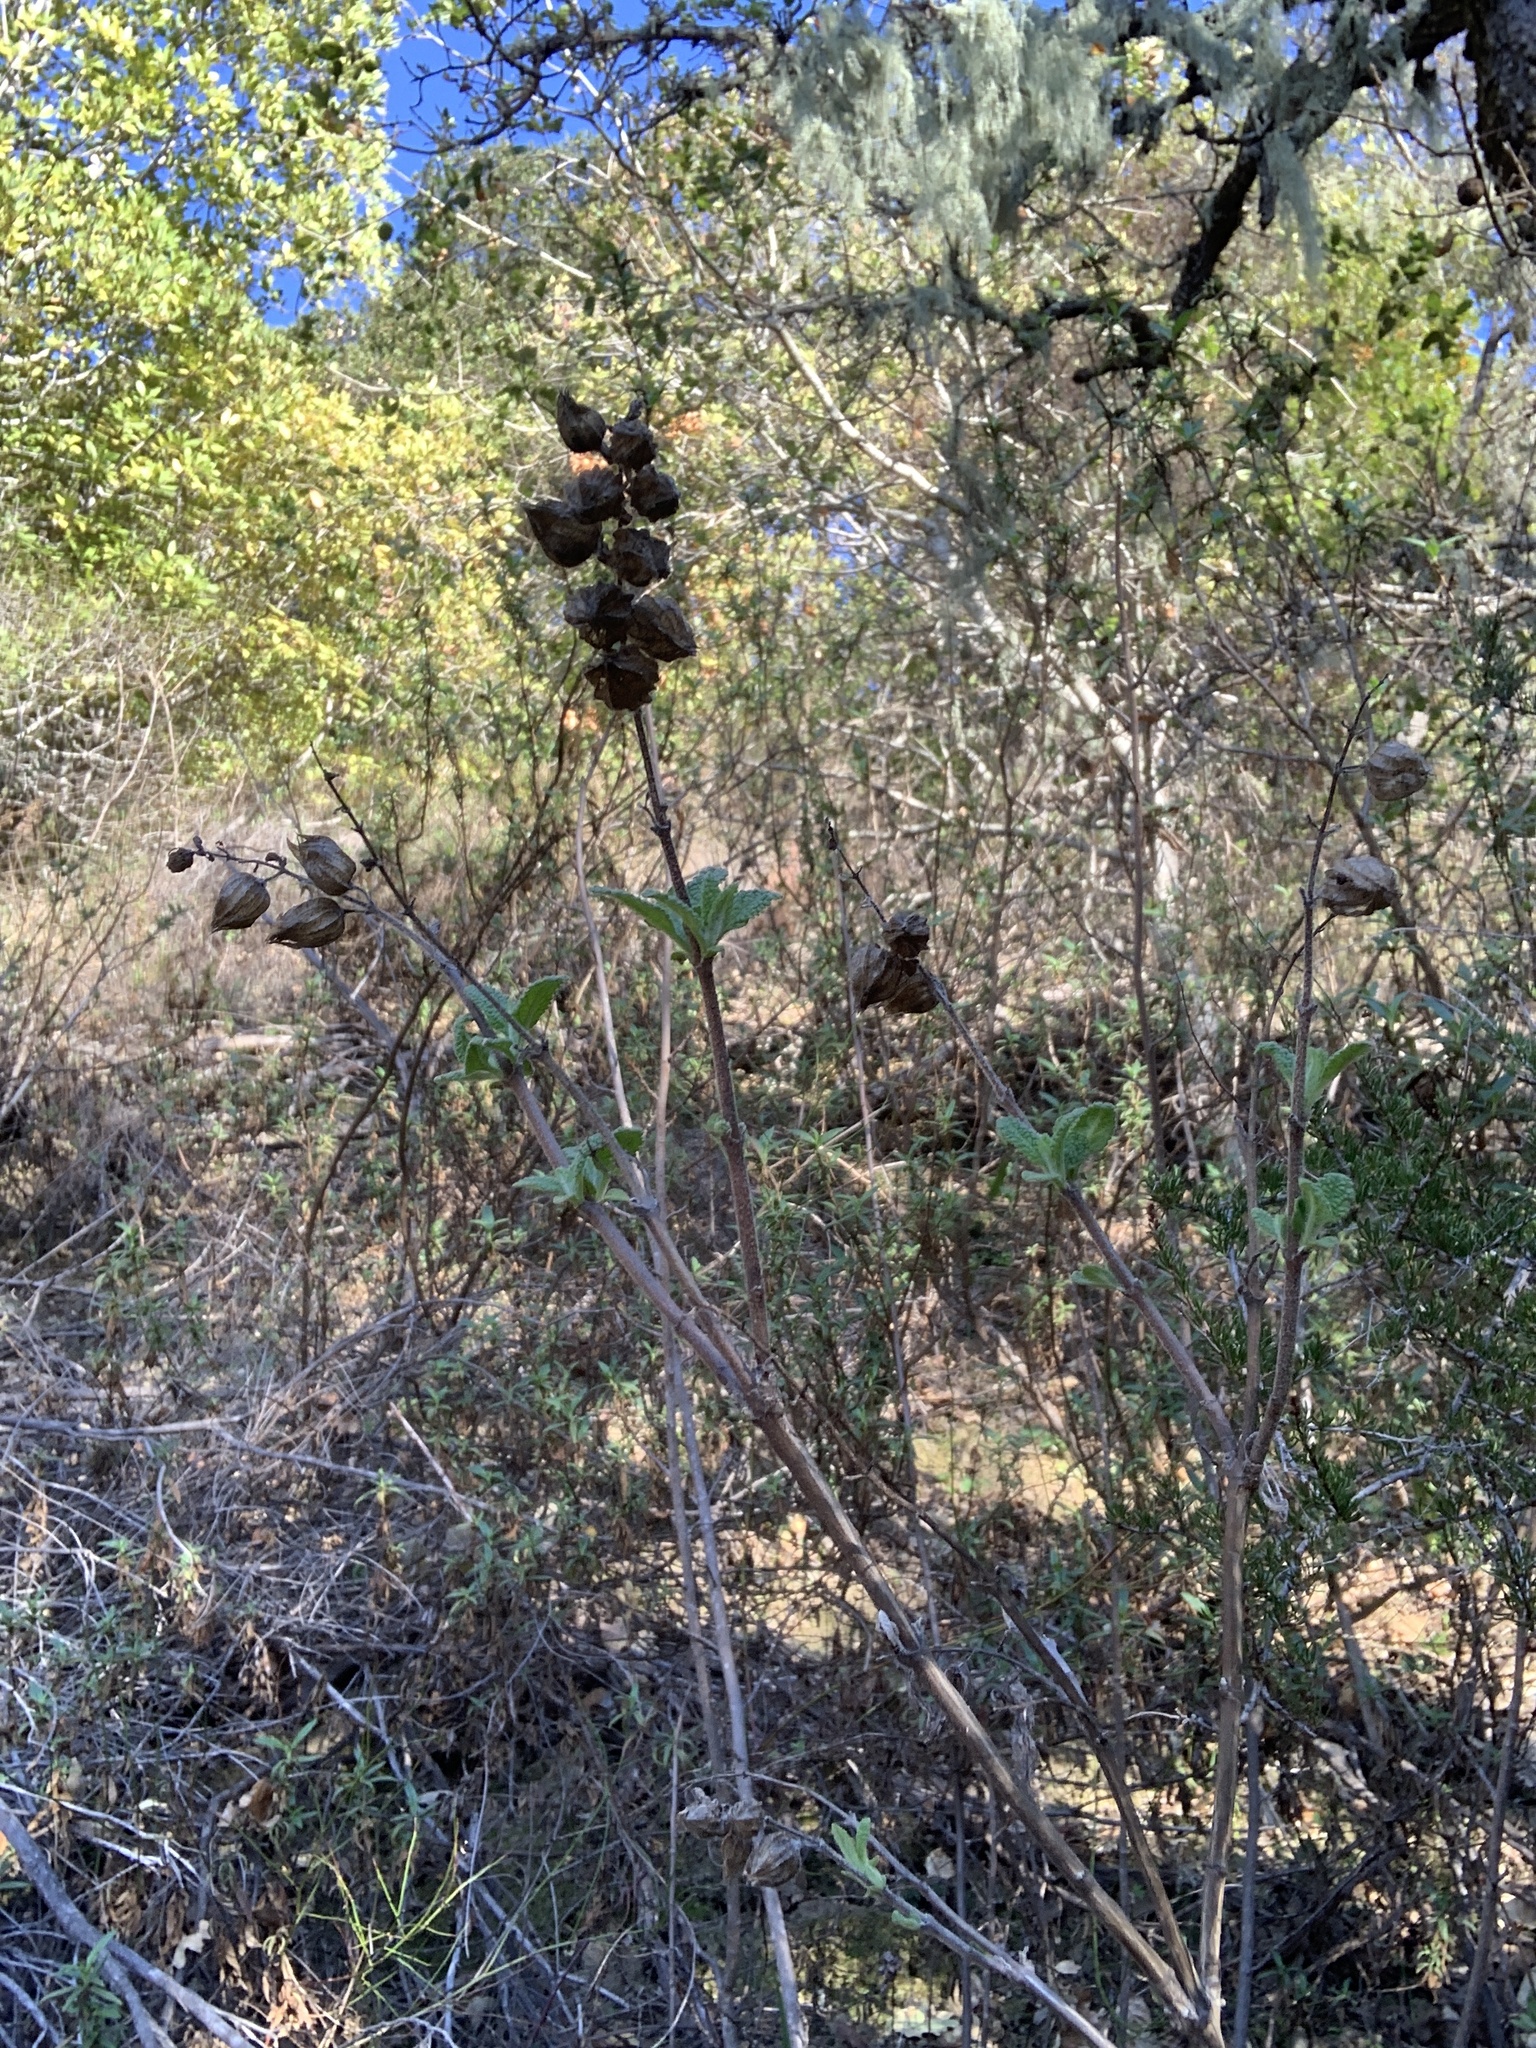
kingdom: Plantae
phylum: Tracheophyta
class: Magnoliopsida
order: Lamiales
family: Lamiaceae
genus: Lepechinia
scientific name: Lepechinia calycina
